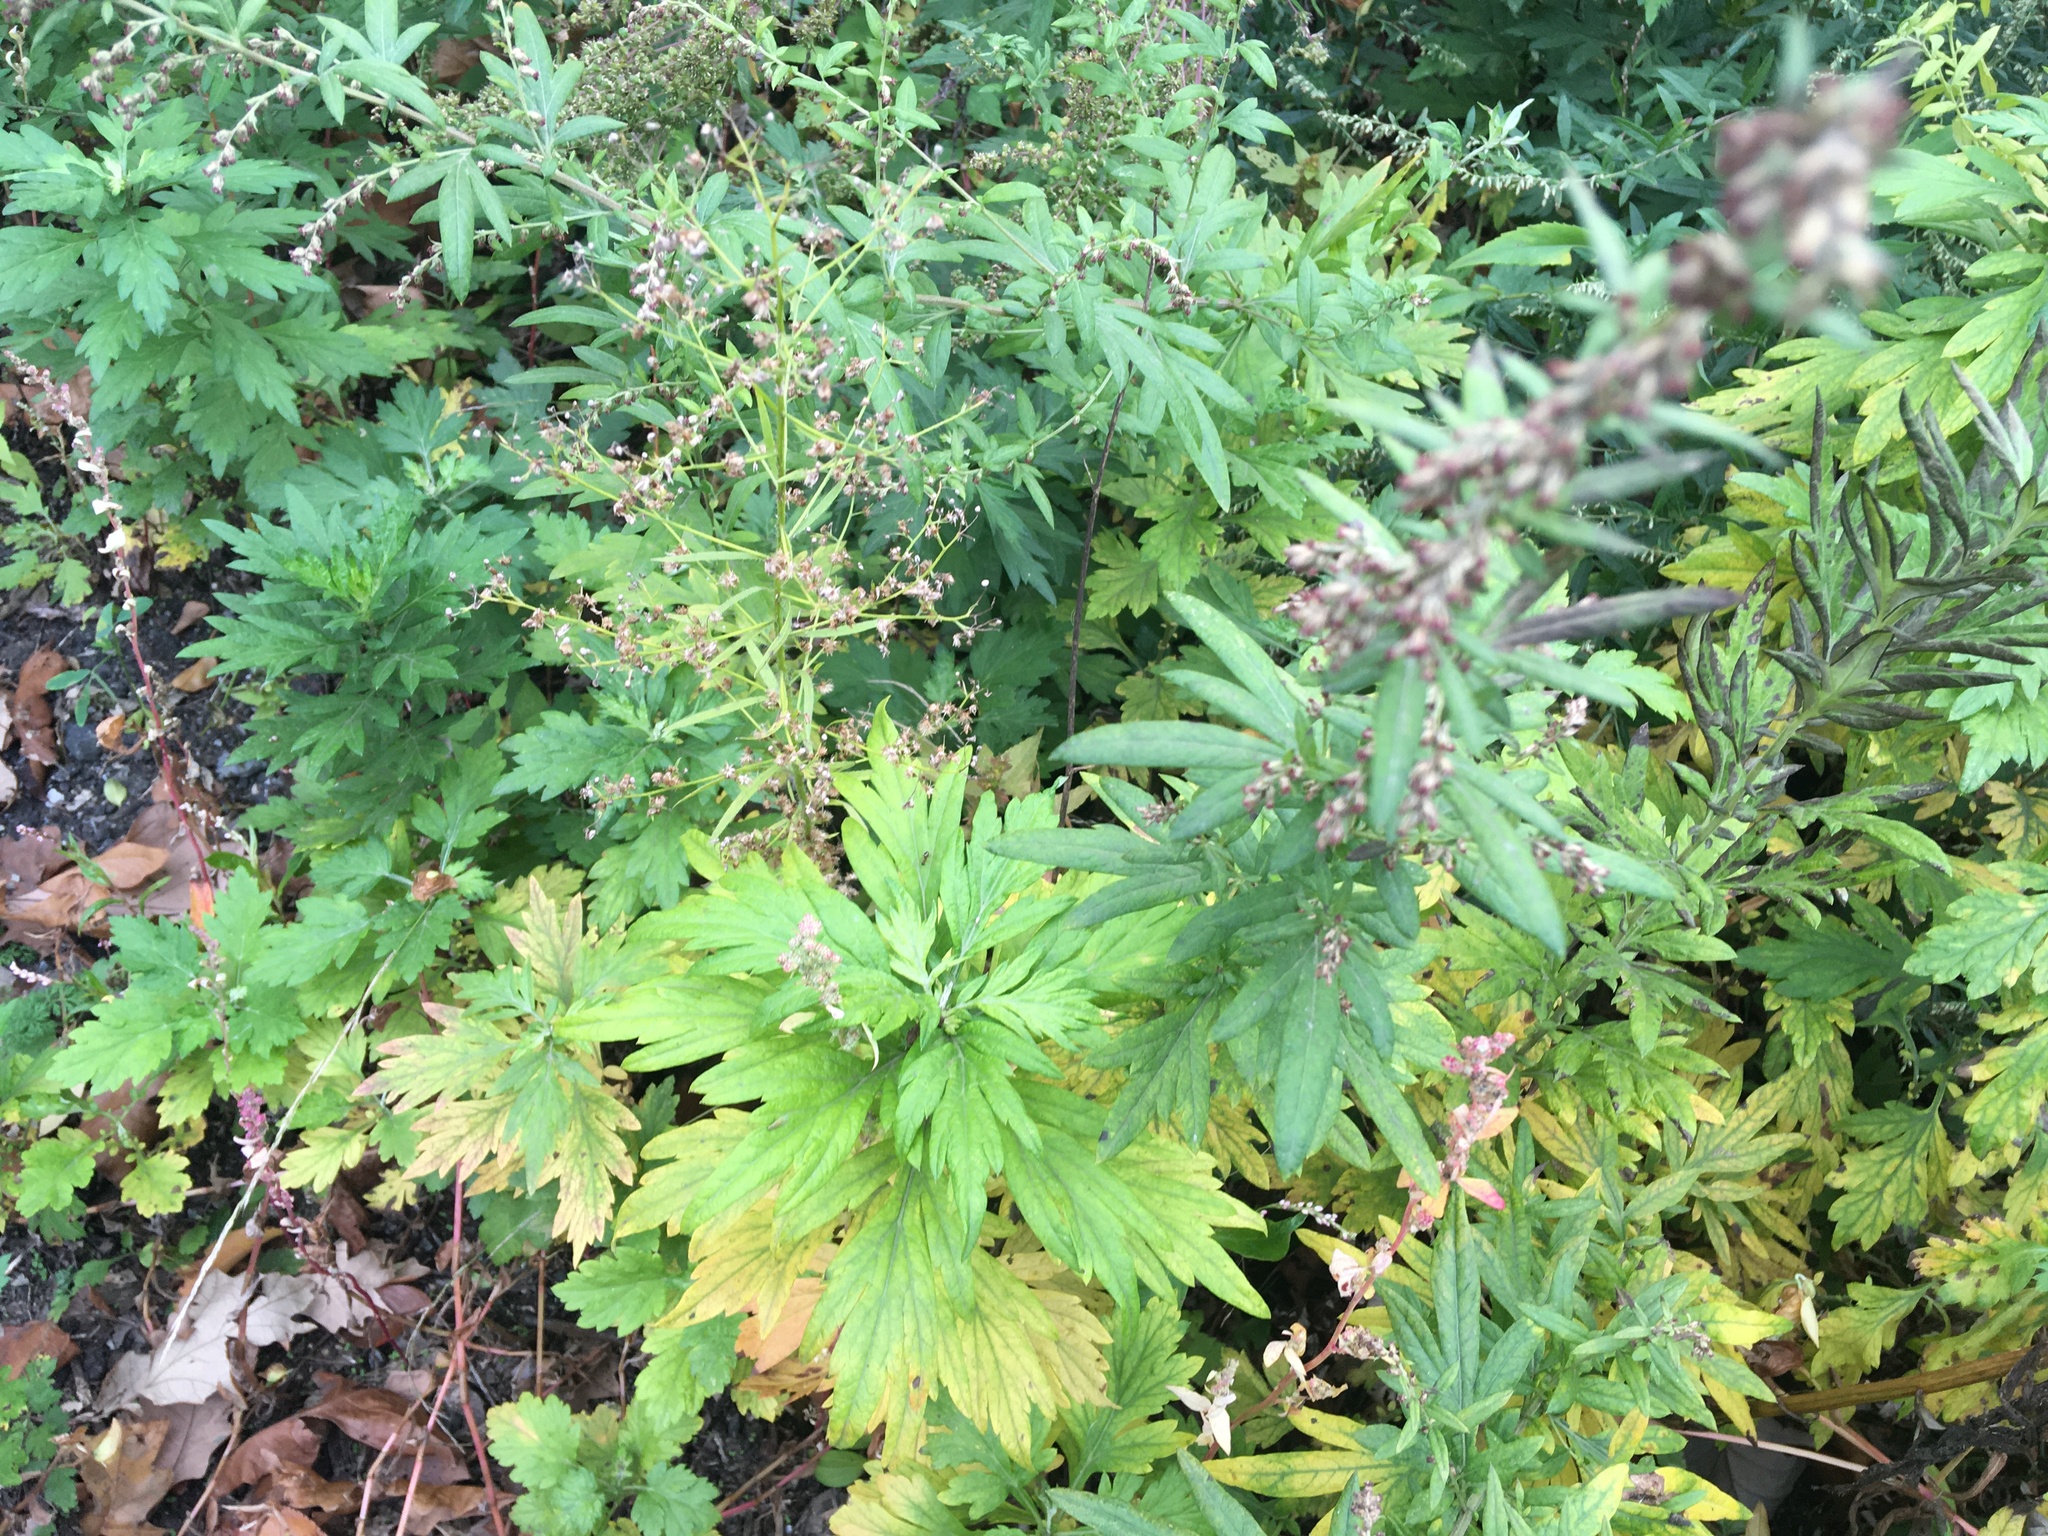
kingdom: Plantae
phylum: Tracheophyta
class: Magnoliopsida
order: Asterales
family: Asteraceae
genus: Artemisia
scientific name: Artemisia vulgaris
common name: Mugwort
